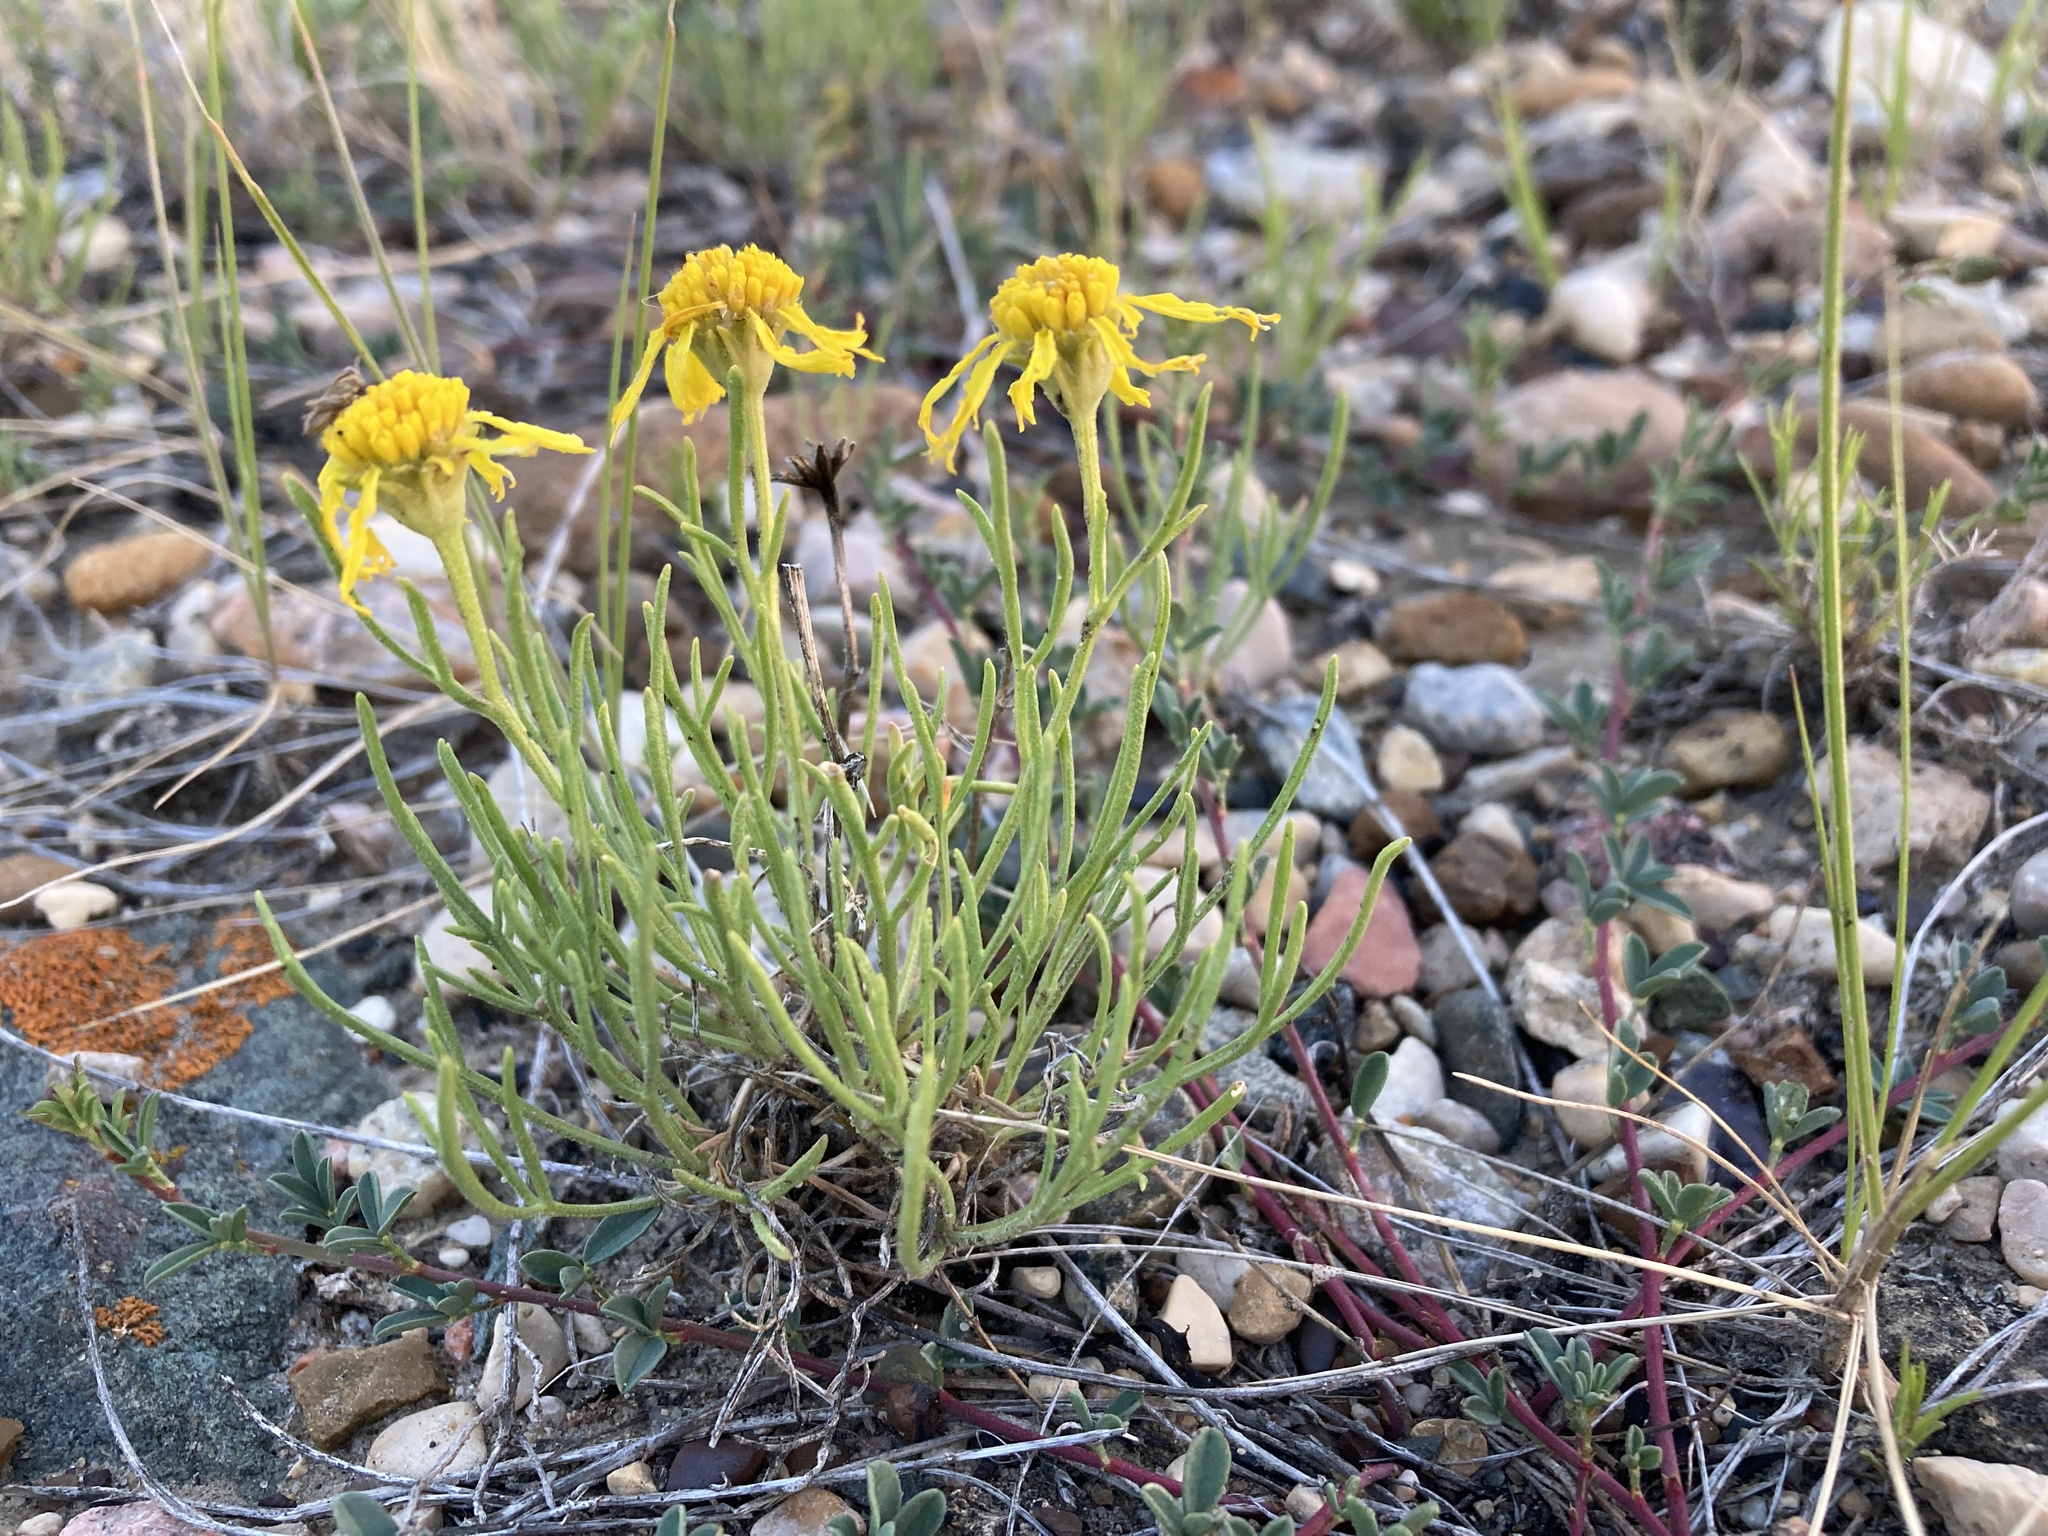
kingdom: Plantae
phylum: Tracheophyta
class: Magnoliopsida
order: Asterales
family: Asteraceae
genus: Hymenoxys
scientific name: Hymenoxys richardsonii
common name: Pingue rubberweed
